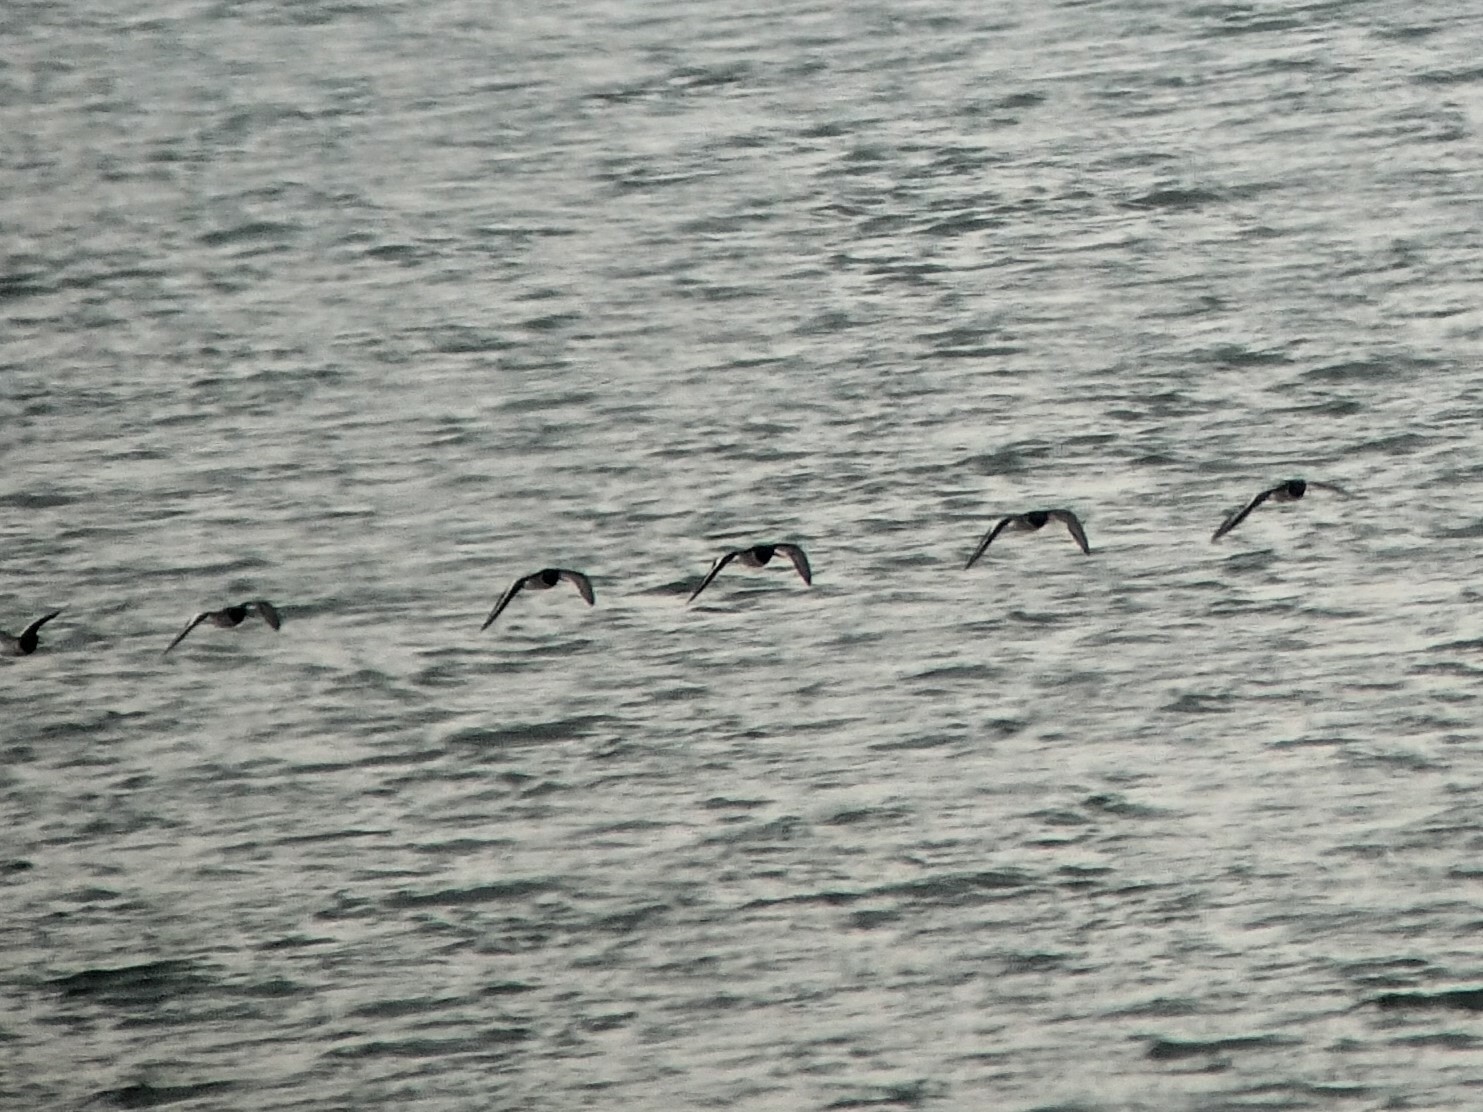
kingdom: Animalia
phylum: Chordata
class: Aves
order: Charadriiformes
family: Haematopodidae
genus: Haematopus
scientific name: Haematopus ostralegus
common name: Eurasian oystercatcher
